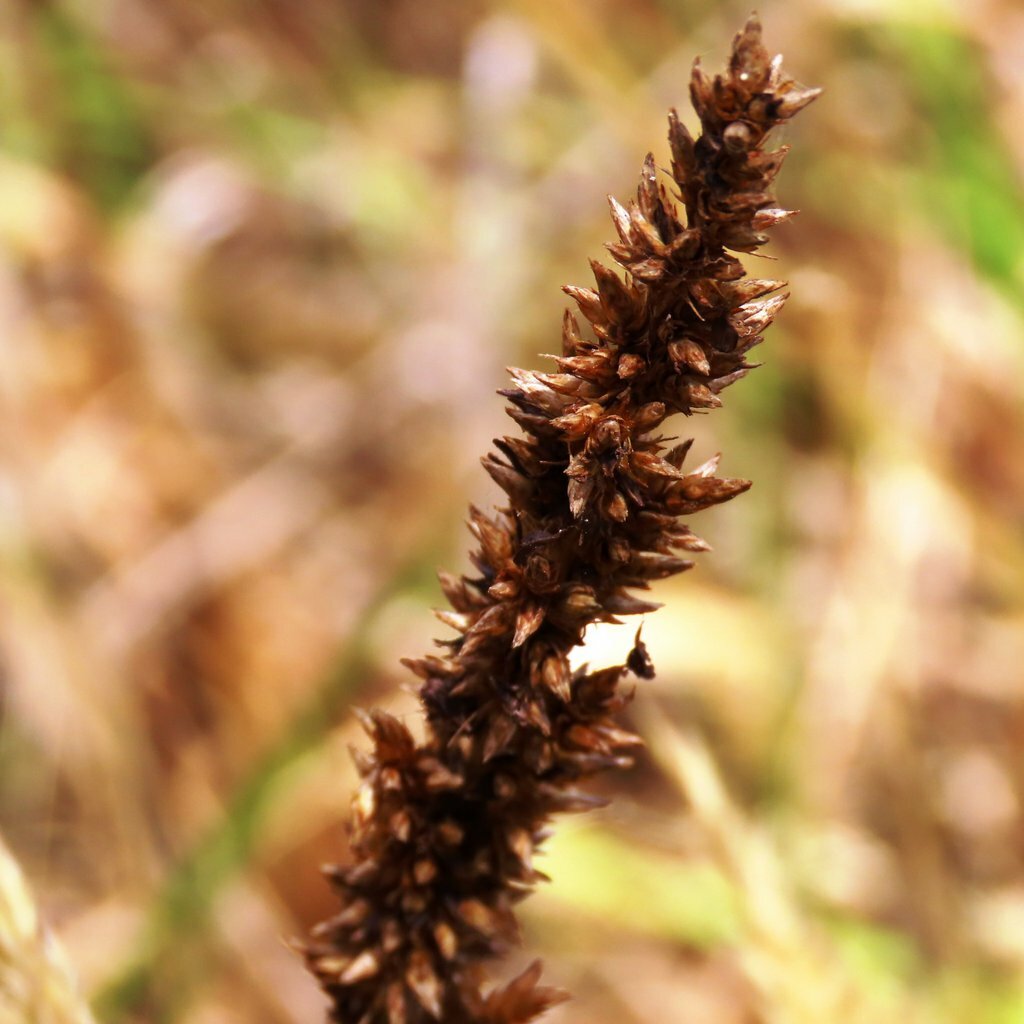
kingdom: Plantae
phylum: Tracheophyta
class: Magnoliopsida
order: Caryophyllales
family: Amaranthaceae
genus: Chenopodium
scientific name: Chenopodium robertianum
